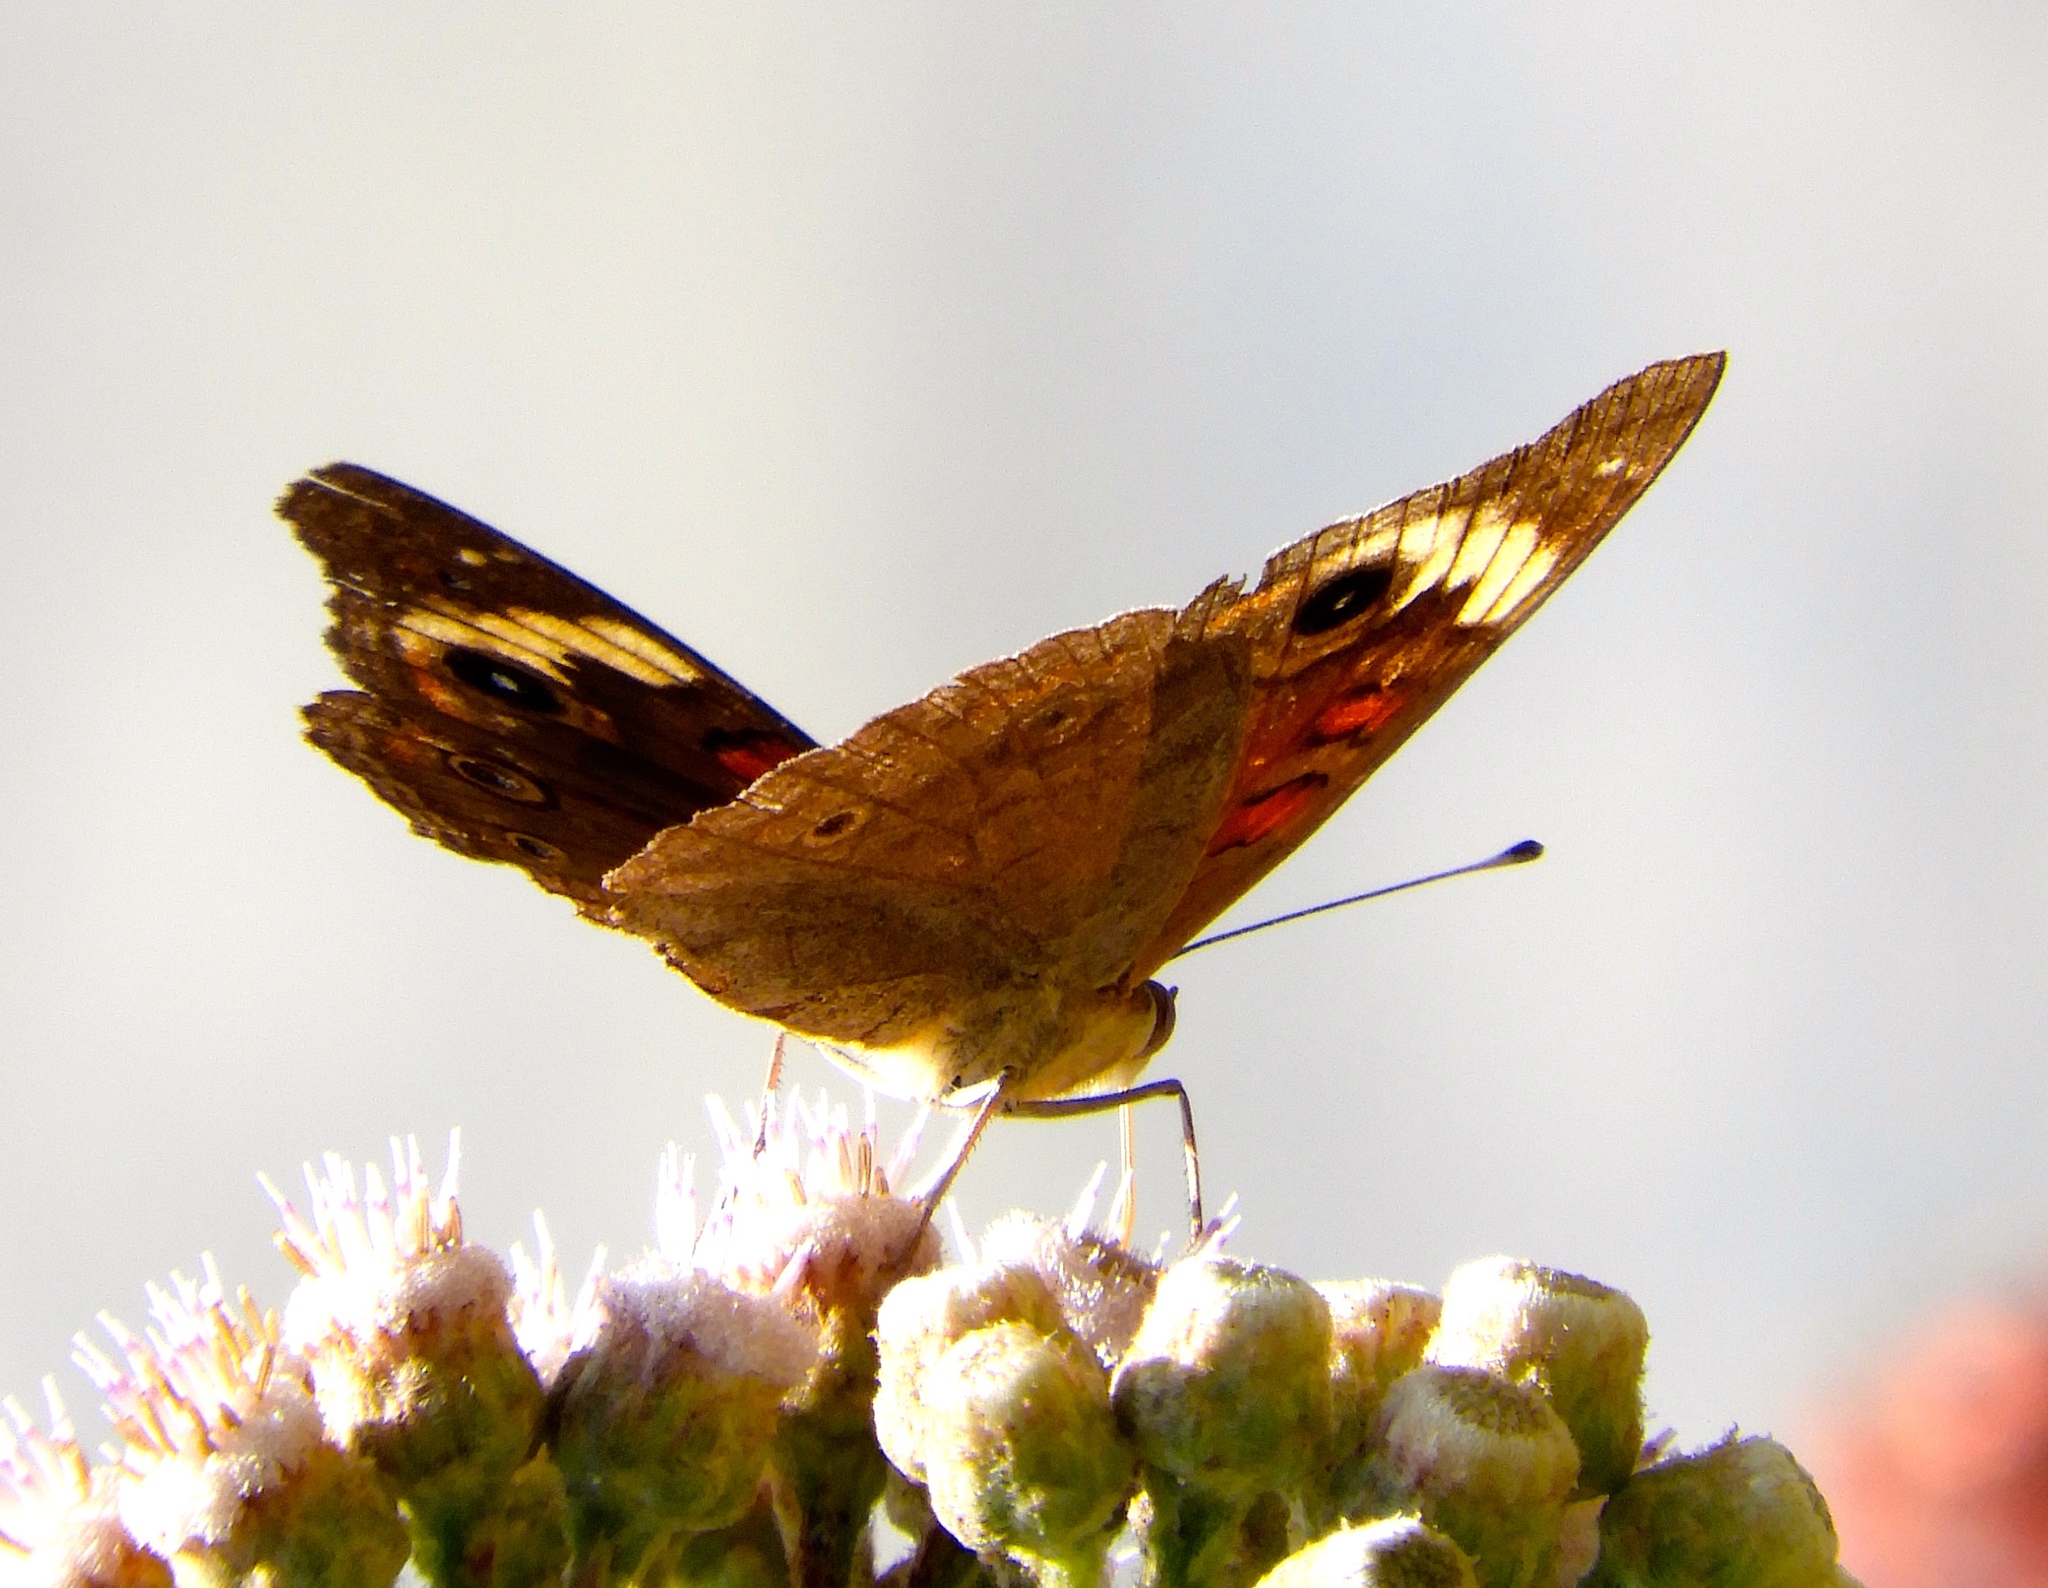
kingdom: Animalia
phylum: Arthropoda
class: Insecta
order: Lepidoptera
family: Nymphalidae
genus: Junonia
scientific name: Junonia
